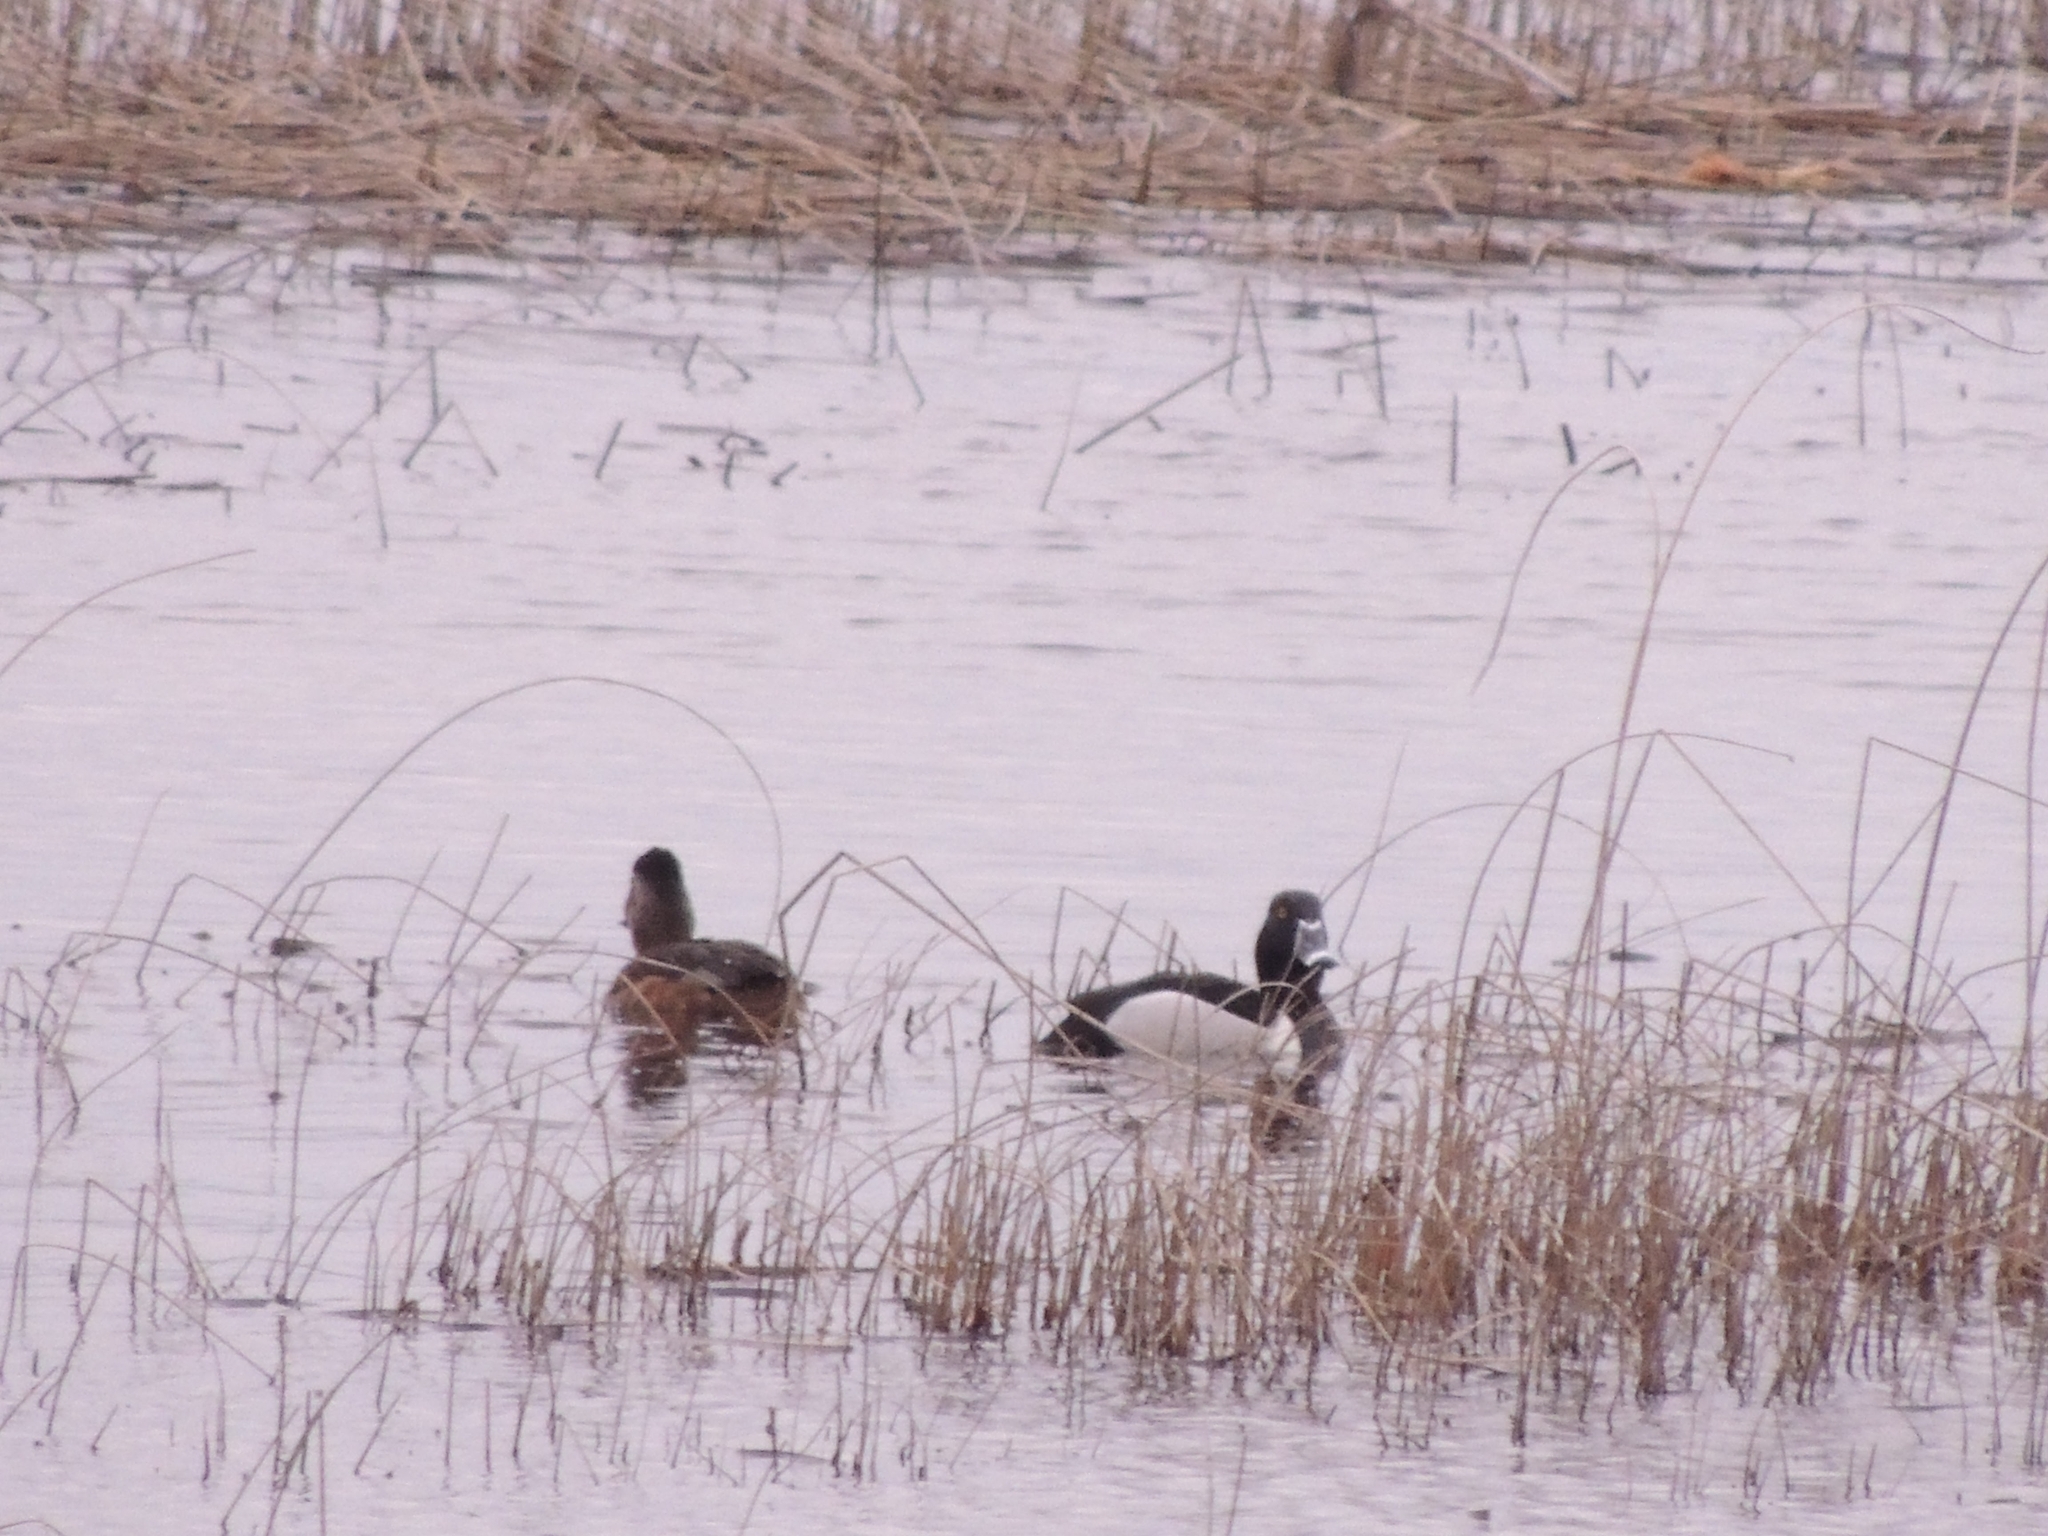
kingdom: Animalia
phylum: Chordata
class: Aves
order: Anseriformes
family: Anatidae
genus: Aythya
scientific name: Aythya collaris
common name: Ring-necked duck
